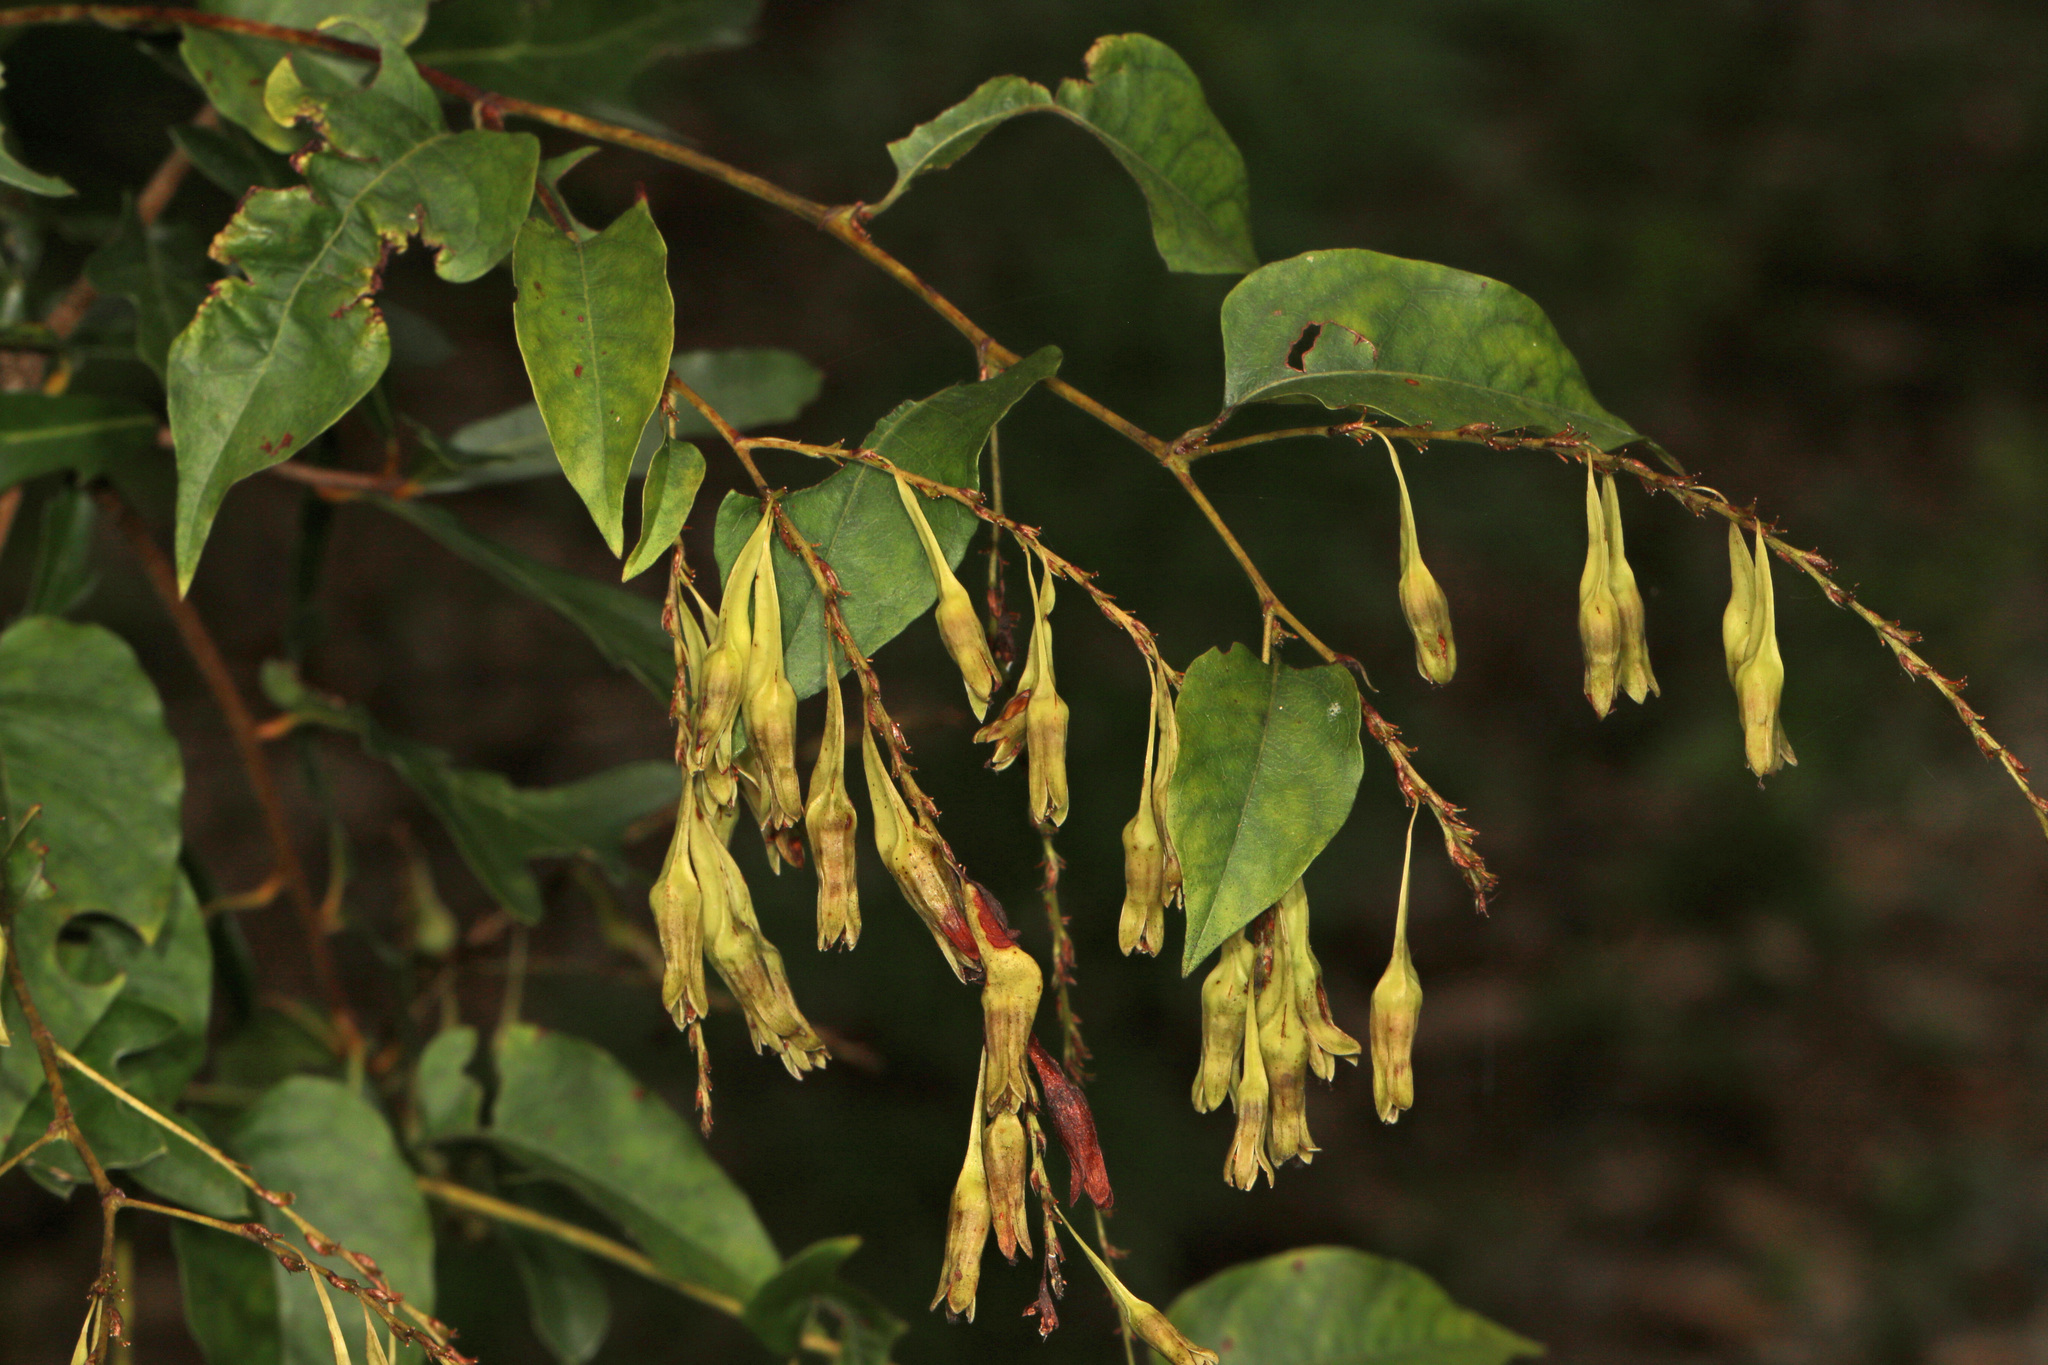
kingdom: Plantae
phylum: Tracheophyta
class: Magnoliopsida
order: Caryophyllales
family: Polygonaceae
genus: Brunnichia
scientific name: Brunnichia ovata
